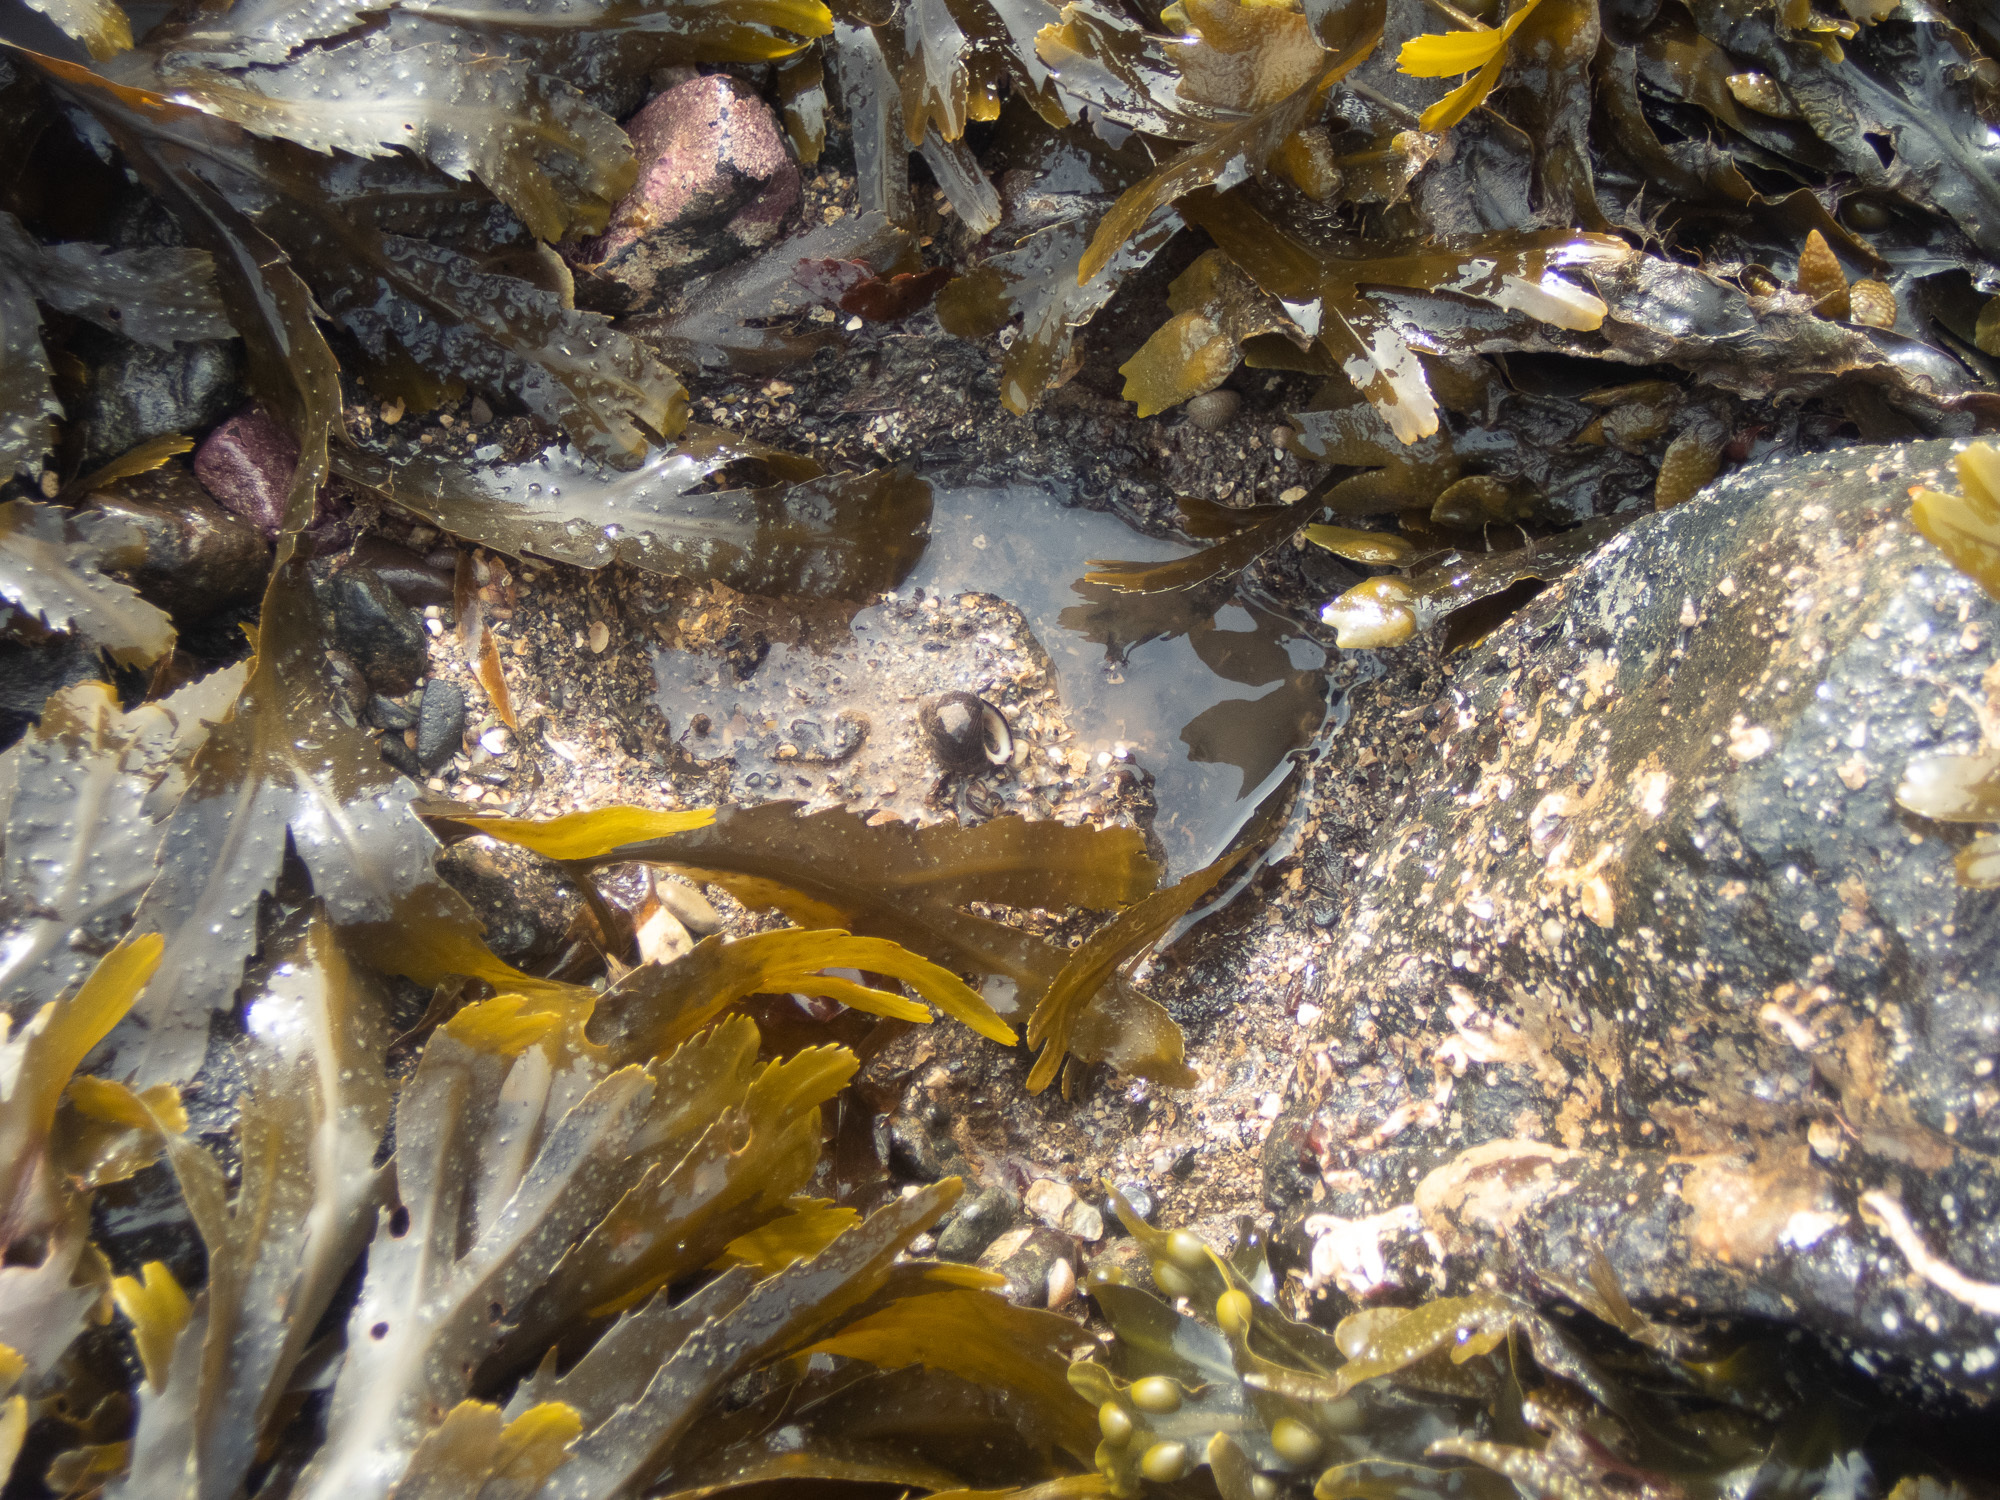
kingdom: Chromista
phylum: Ochrophyta
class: Phaeophyceae
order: Fucales
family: Fucaceae
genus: Fucus
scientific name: Fucus serratus
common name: Toothed wrack
